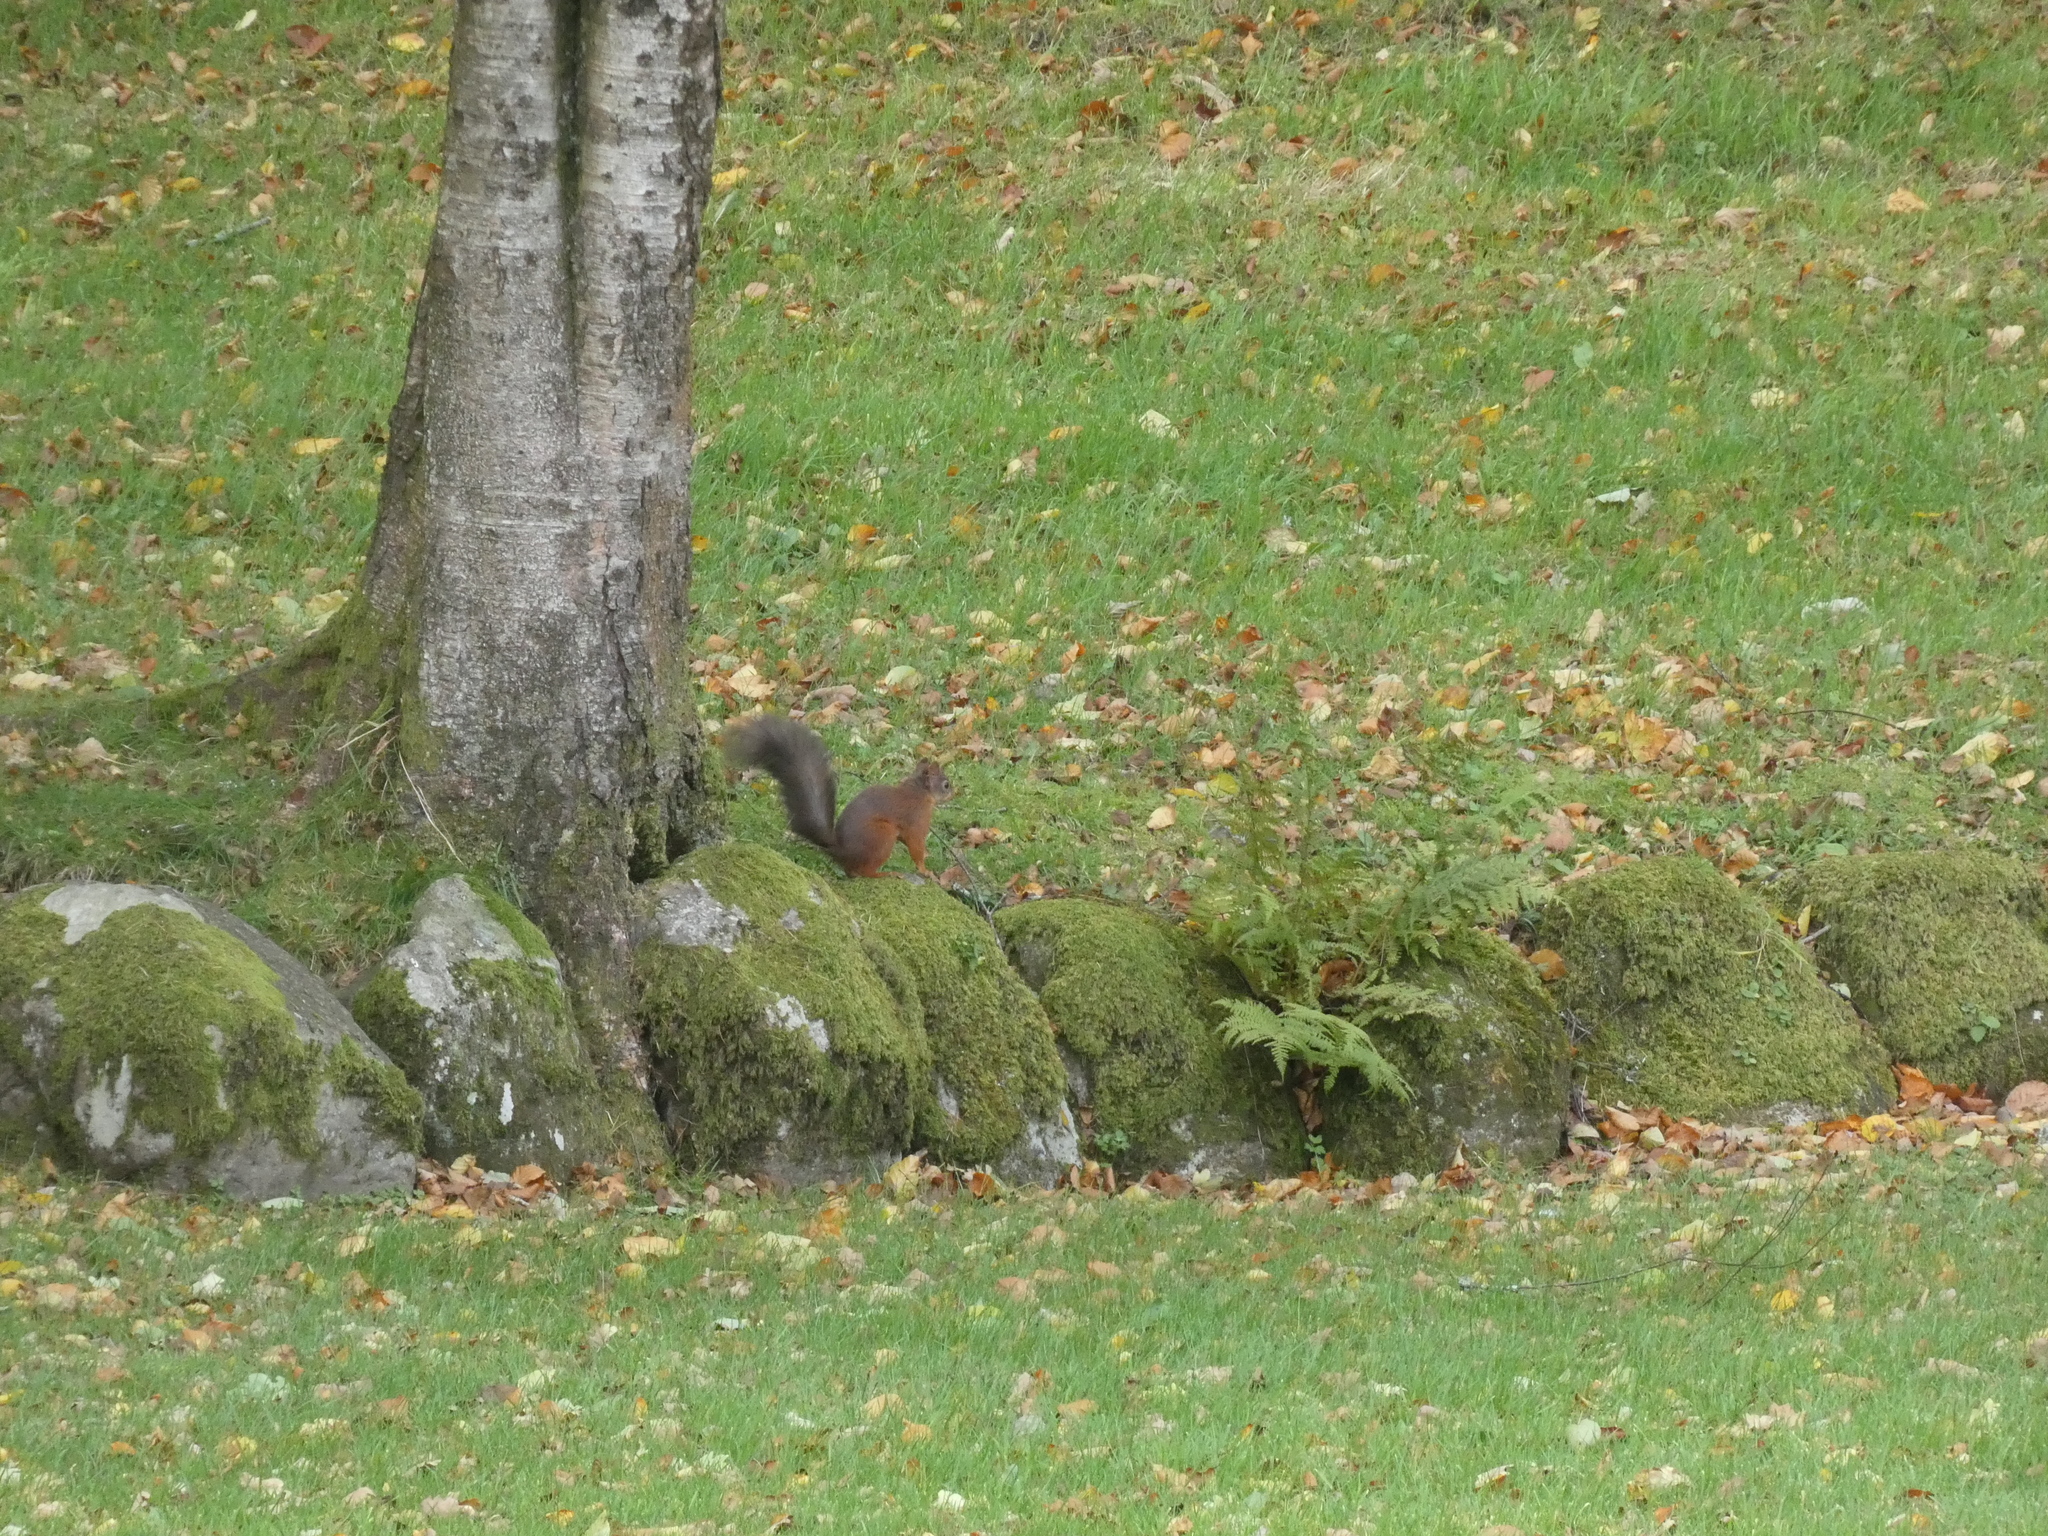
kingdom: Animalia
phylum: Chordata
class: Mammalia
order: Rodentia
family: Sciuridae
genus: Sciurus
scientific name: Sciurus vulgaris
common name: Eurasian red squirrel
